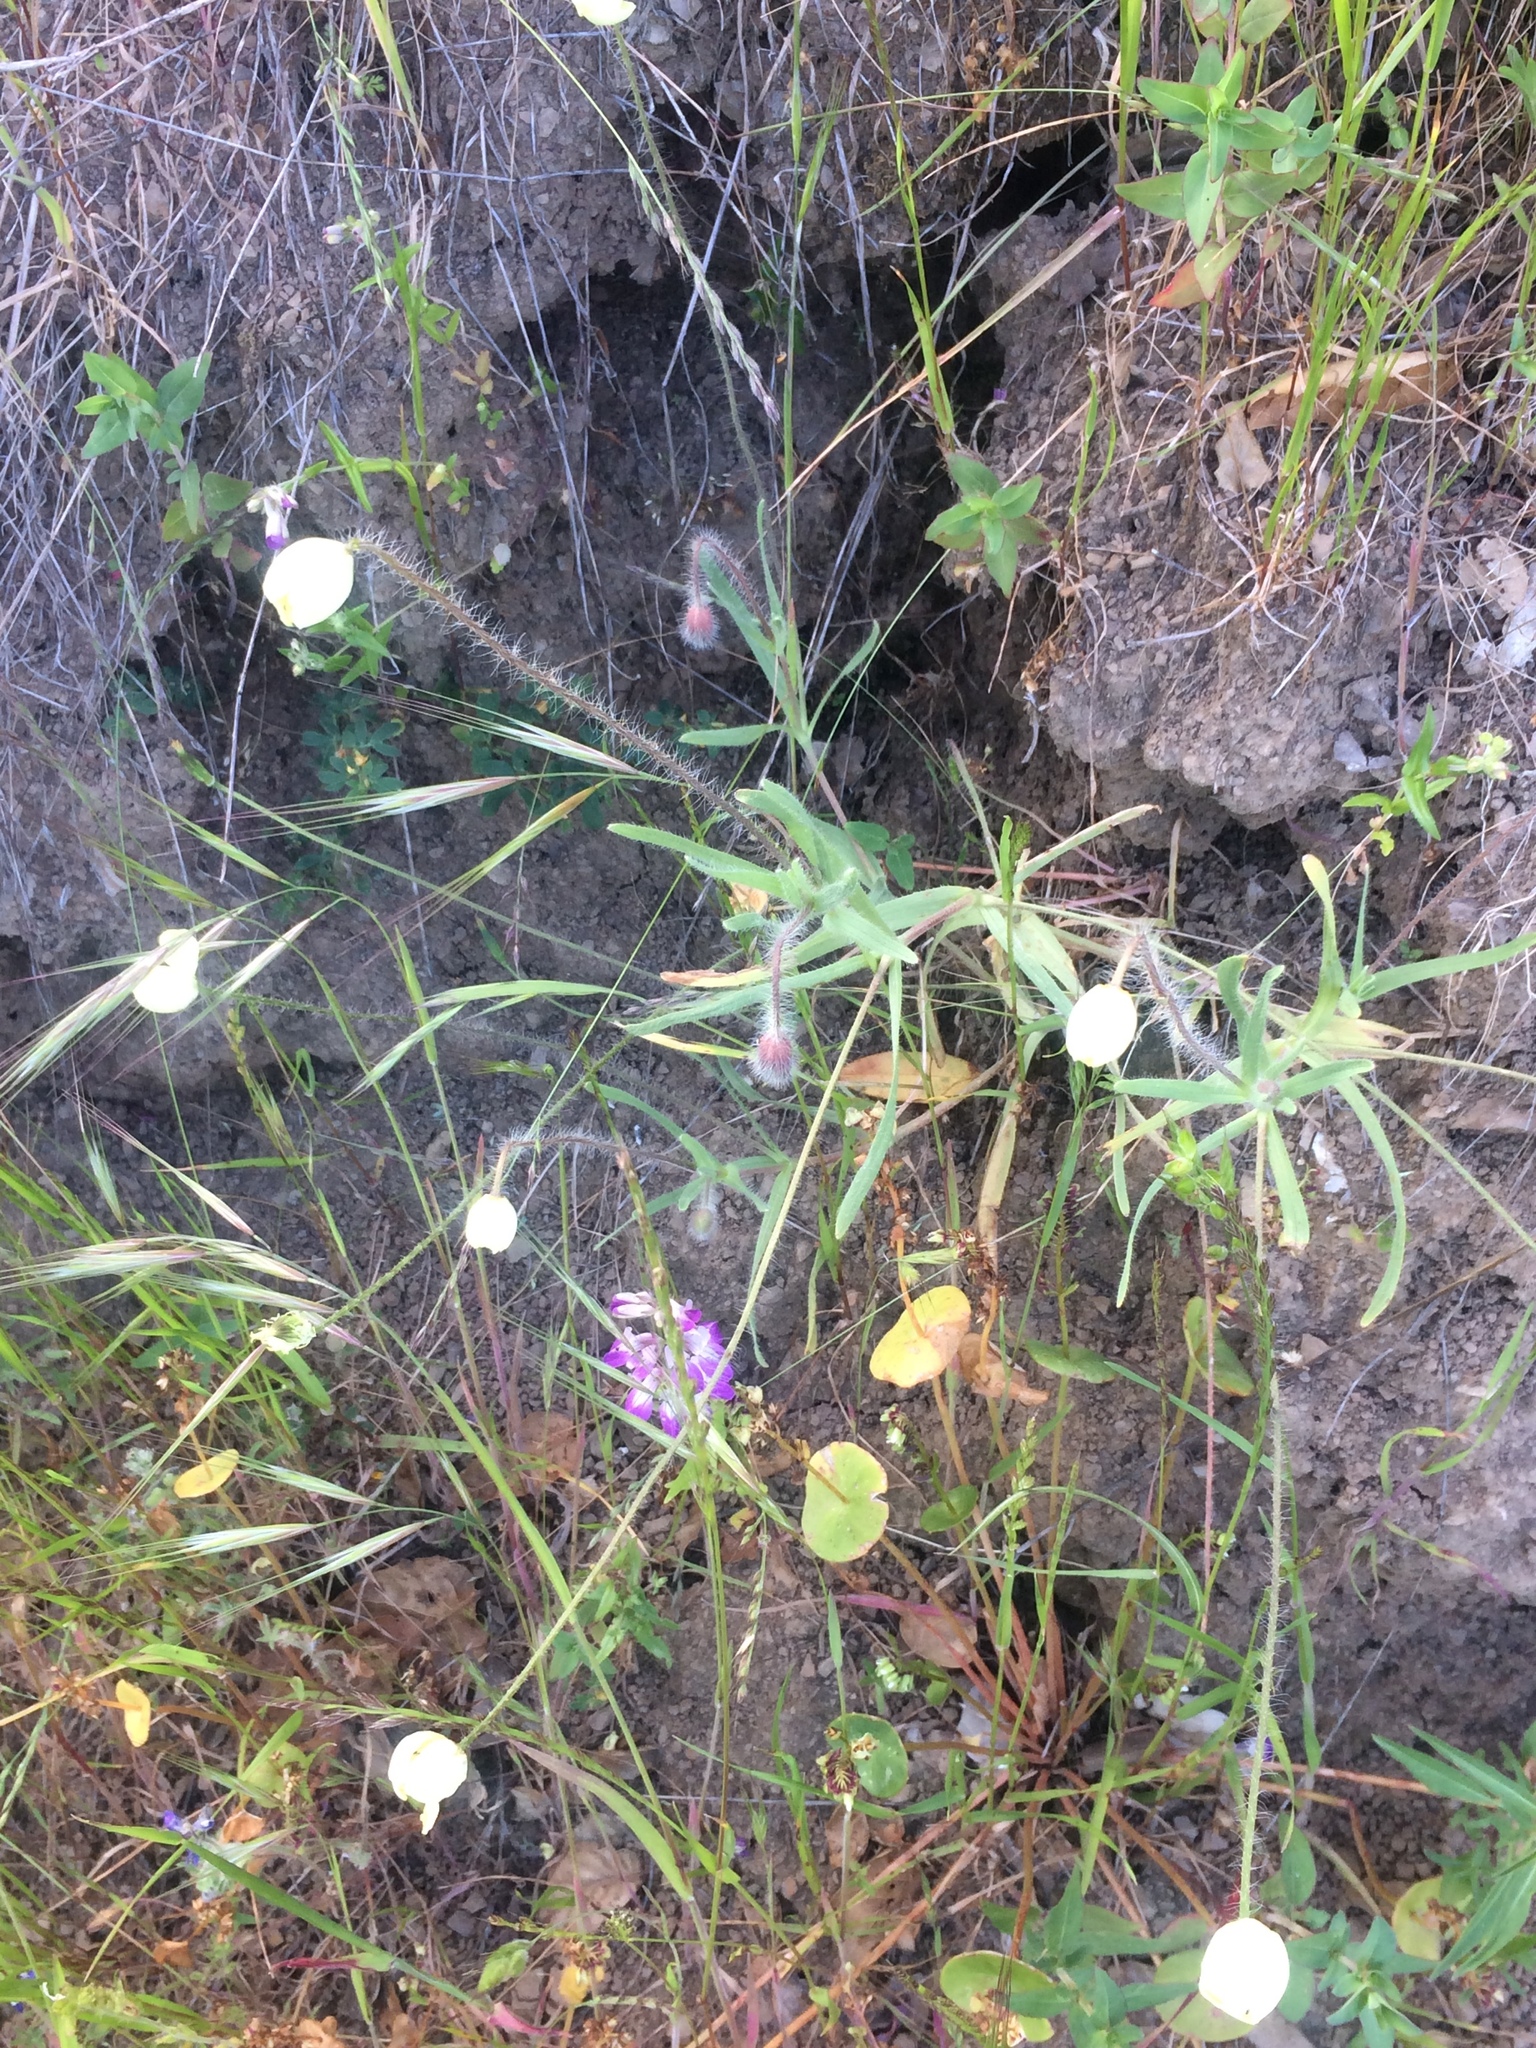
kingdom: Plantae
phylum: Tracheophyta
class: Magnoliopsida
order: Ranunculales
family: Papaveraceae
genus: Platystemon
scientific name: Platystemon californicus
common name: Cream-cups
